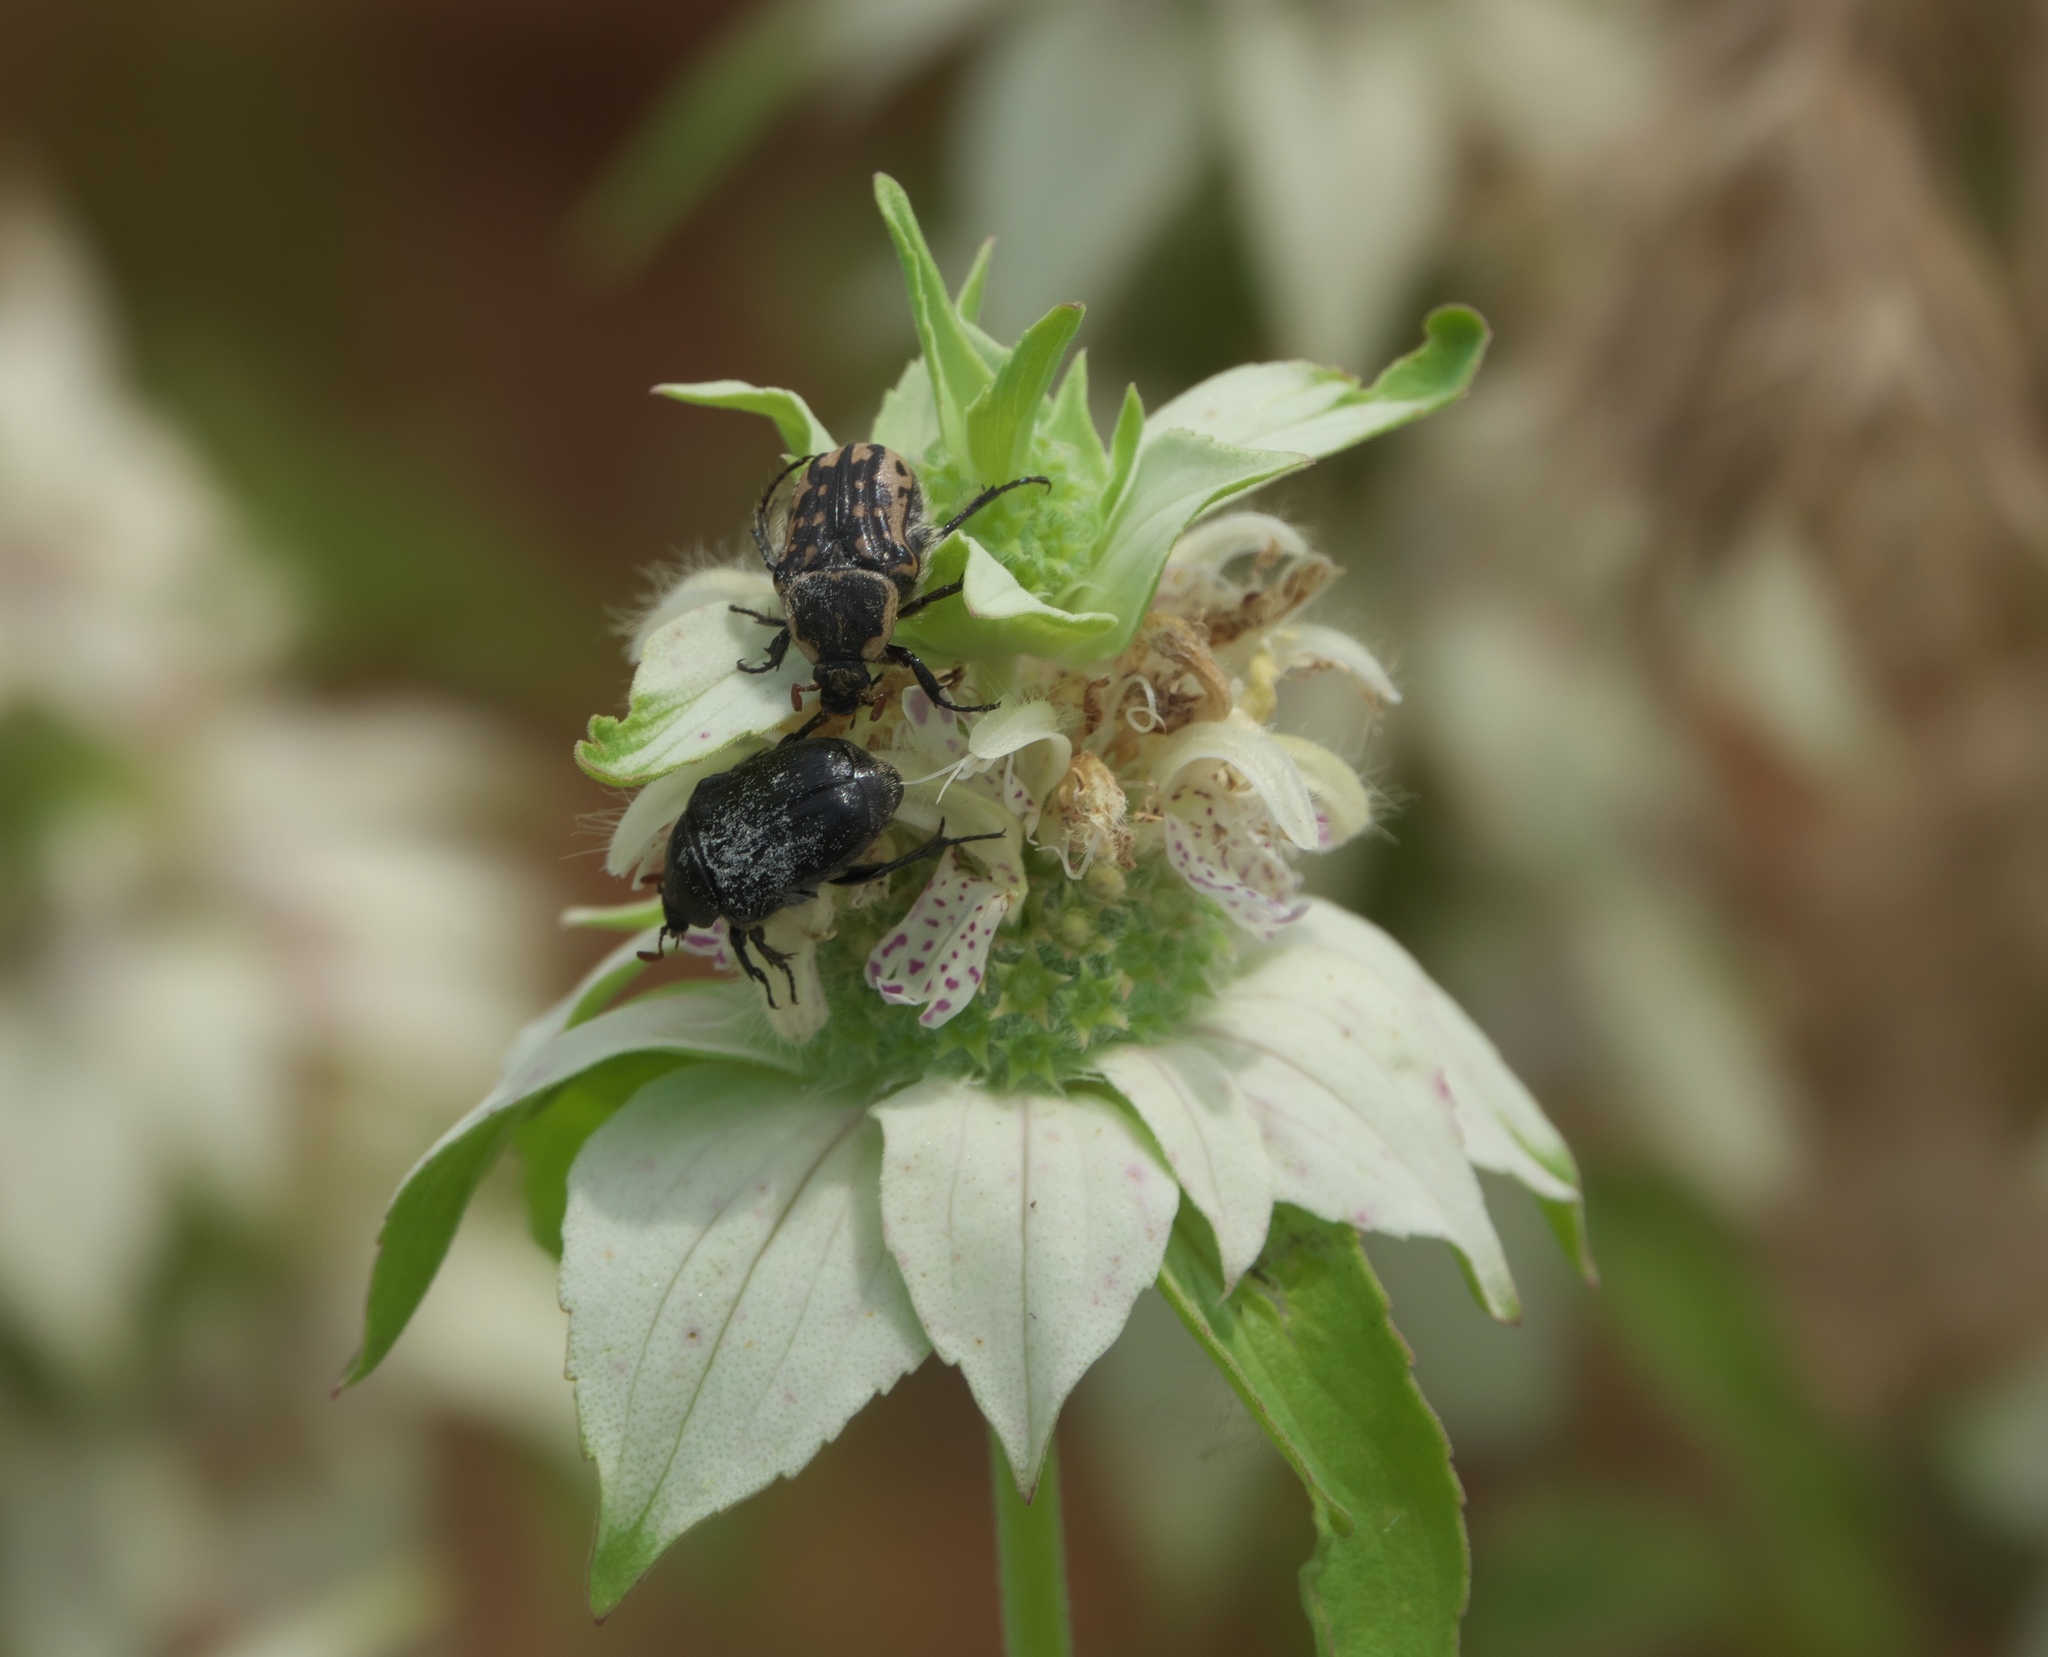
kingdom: Animalia
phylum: Arthropoda
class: Insecta
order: Coleoptera
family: Scarabaeidae
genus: Euphoria
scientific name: Euphoria kernii
